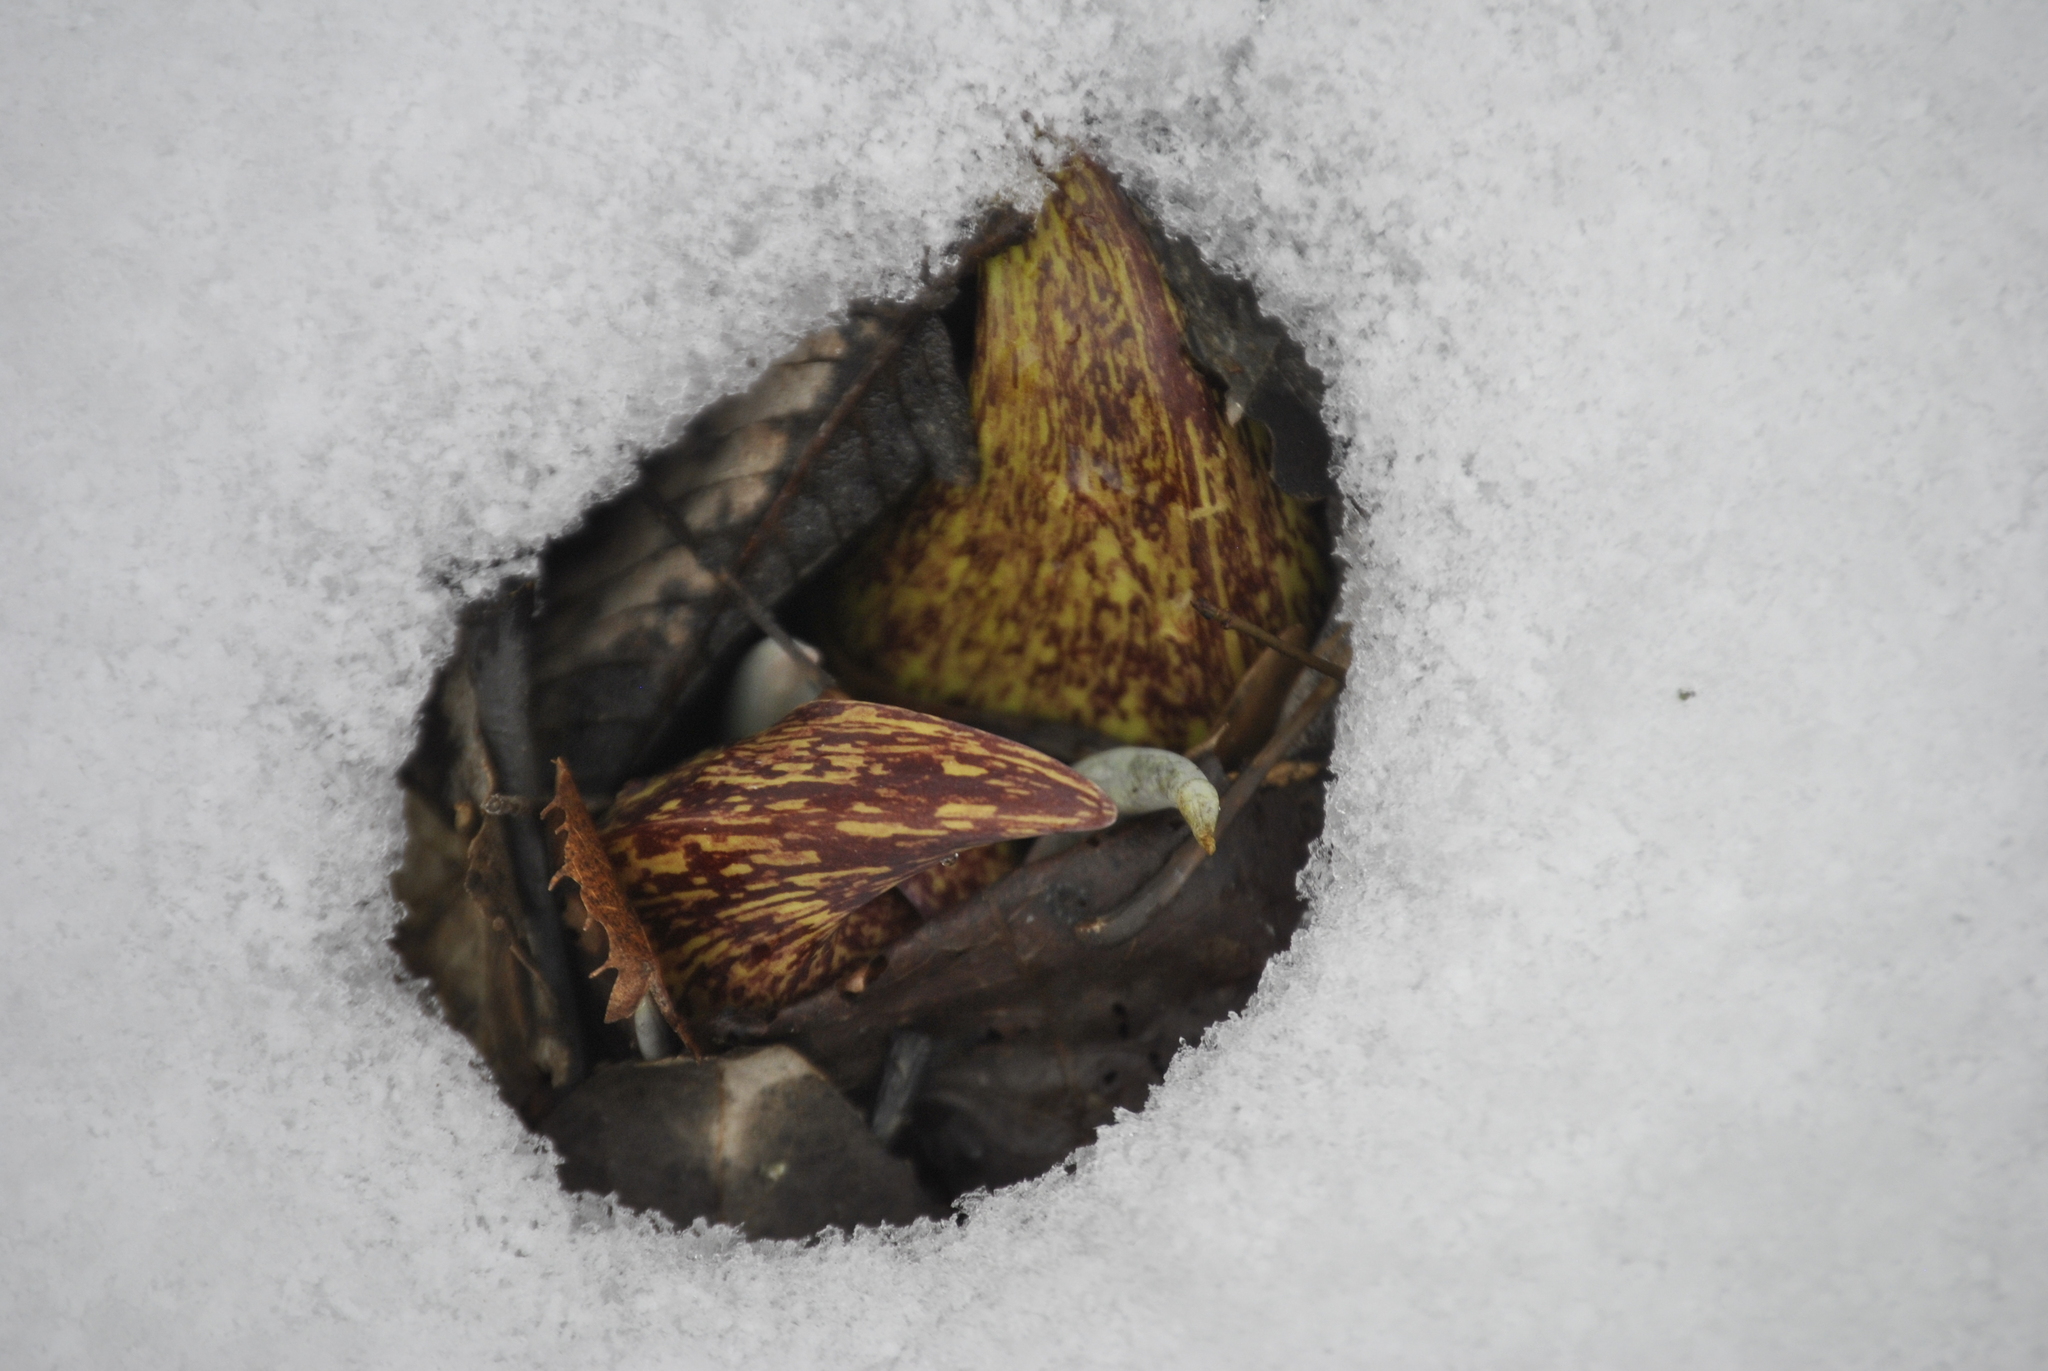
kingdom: Plantae
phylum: Tracheophyta
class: Liliopsida
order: Alismatales
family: Araceae
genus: Symplocarpus
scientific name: Symplocarpus foetidus
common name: Eastern skunk cabbage
